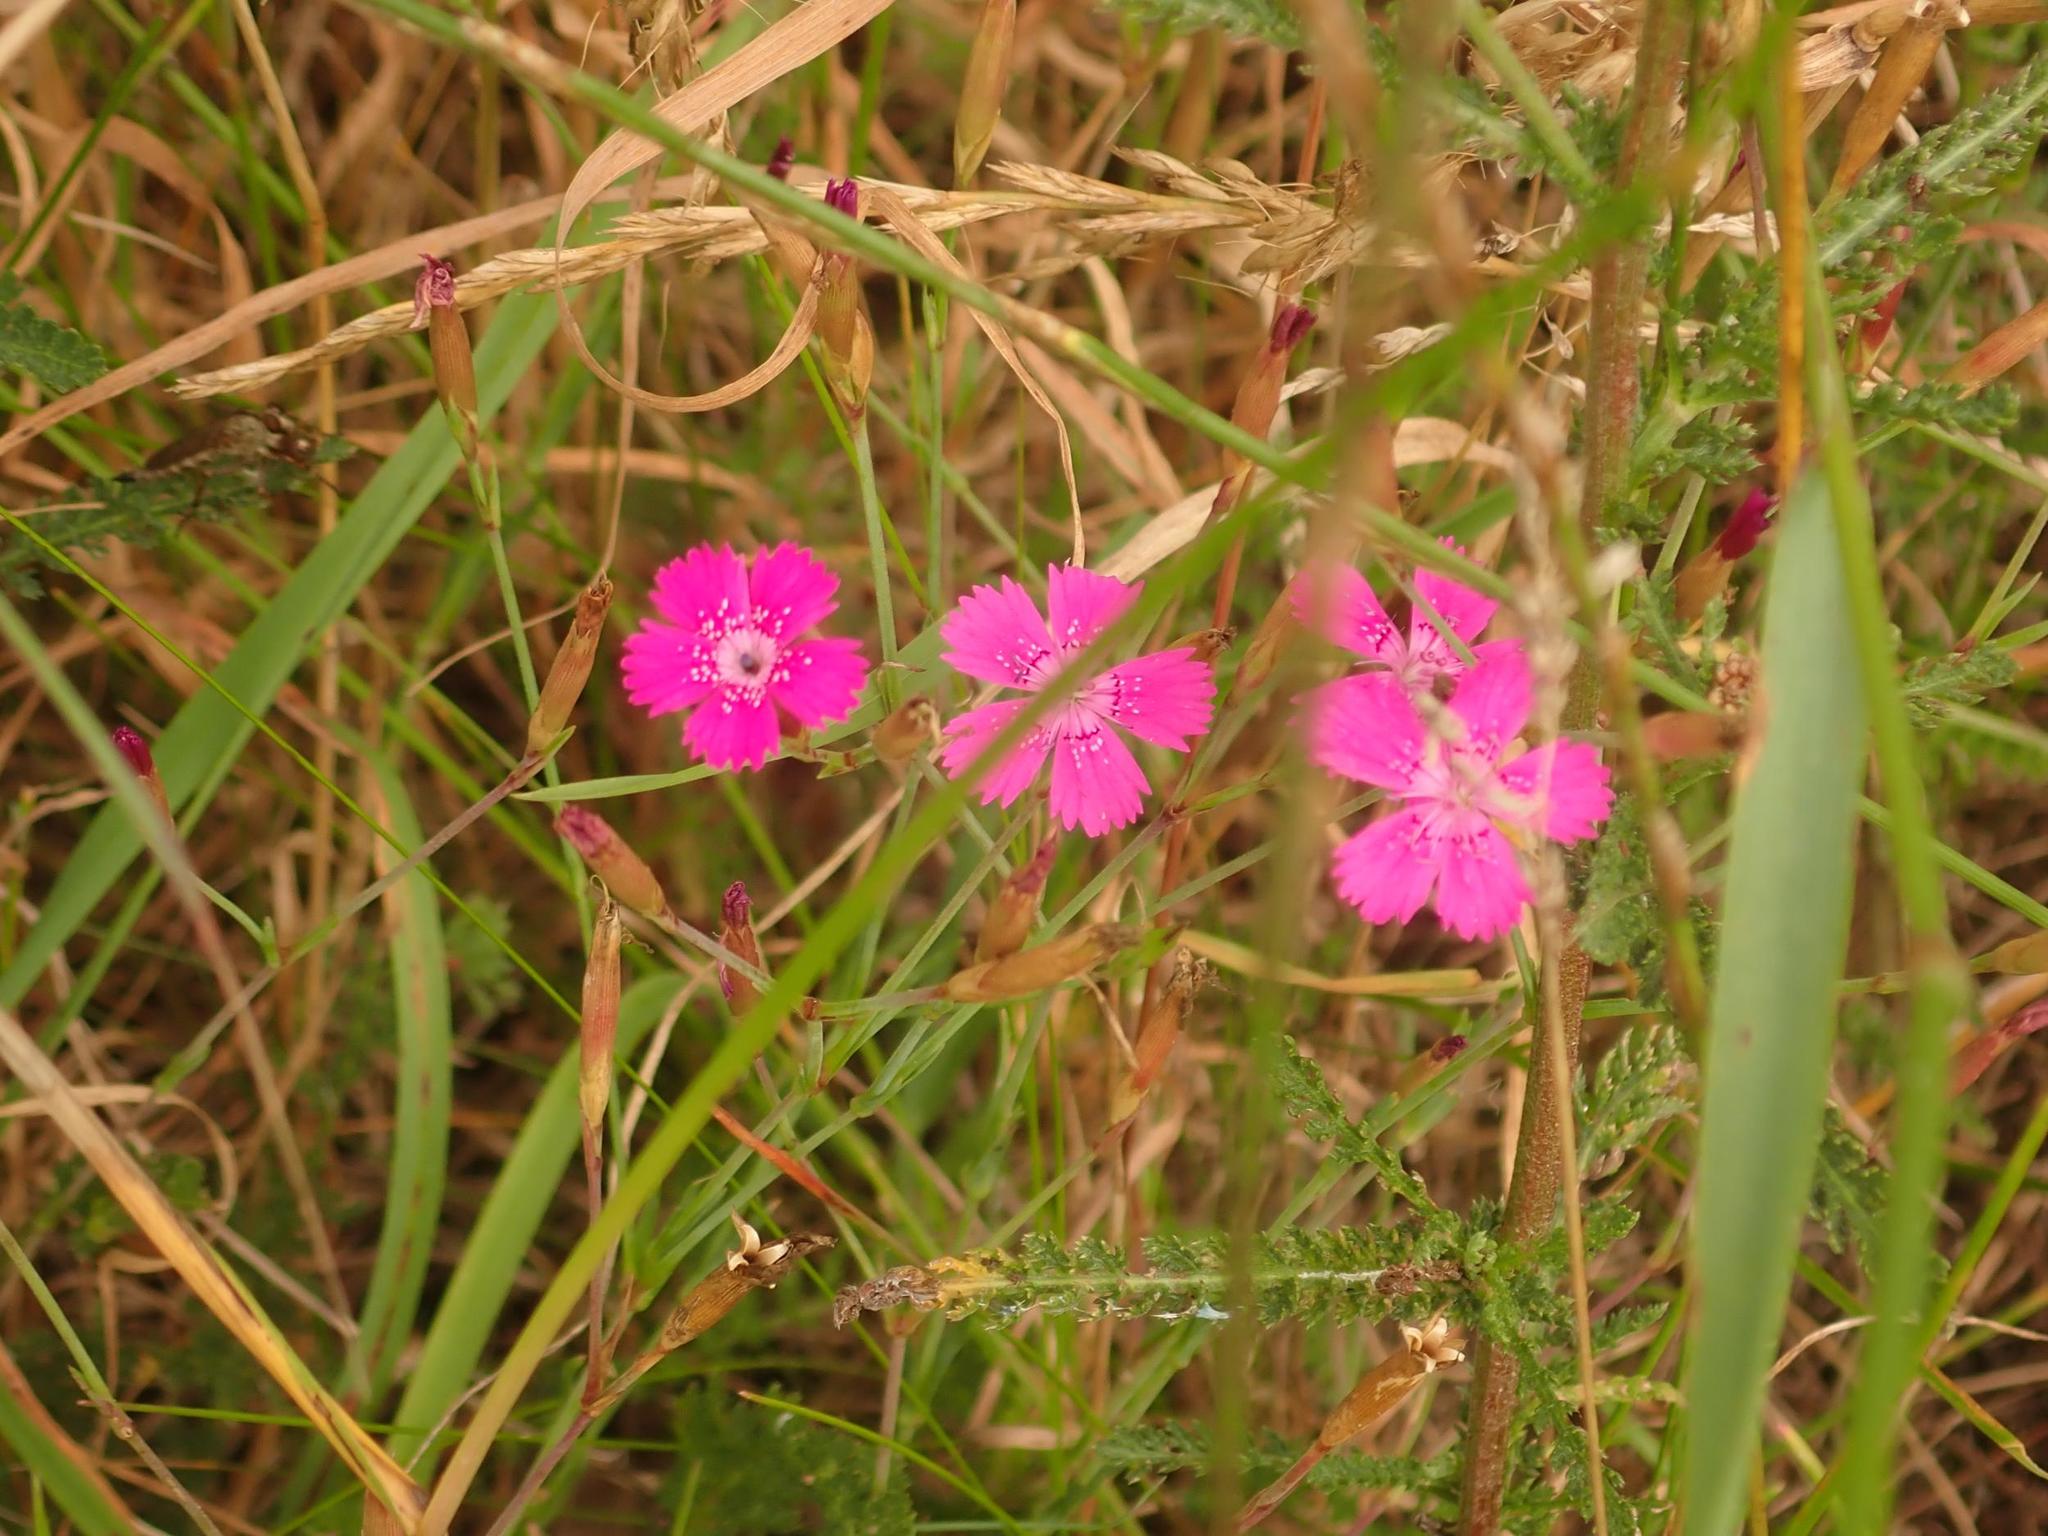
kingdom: Plantae
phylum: Tracheophyta
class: Magnoliopsida
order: Caryophyllales
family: Caryophyllaceae
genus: Dianthus
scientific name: Dianthus deltoides
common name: Maiden pink
